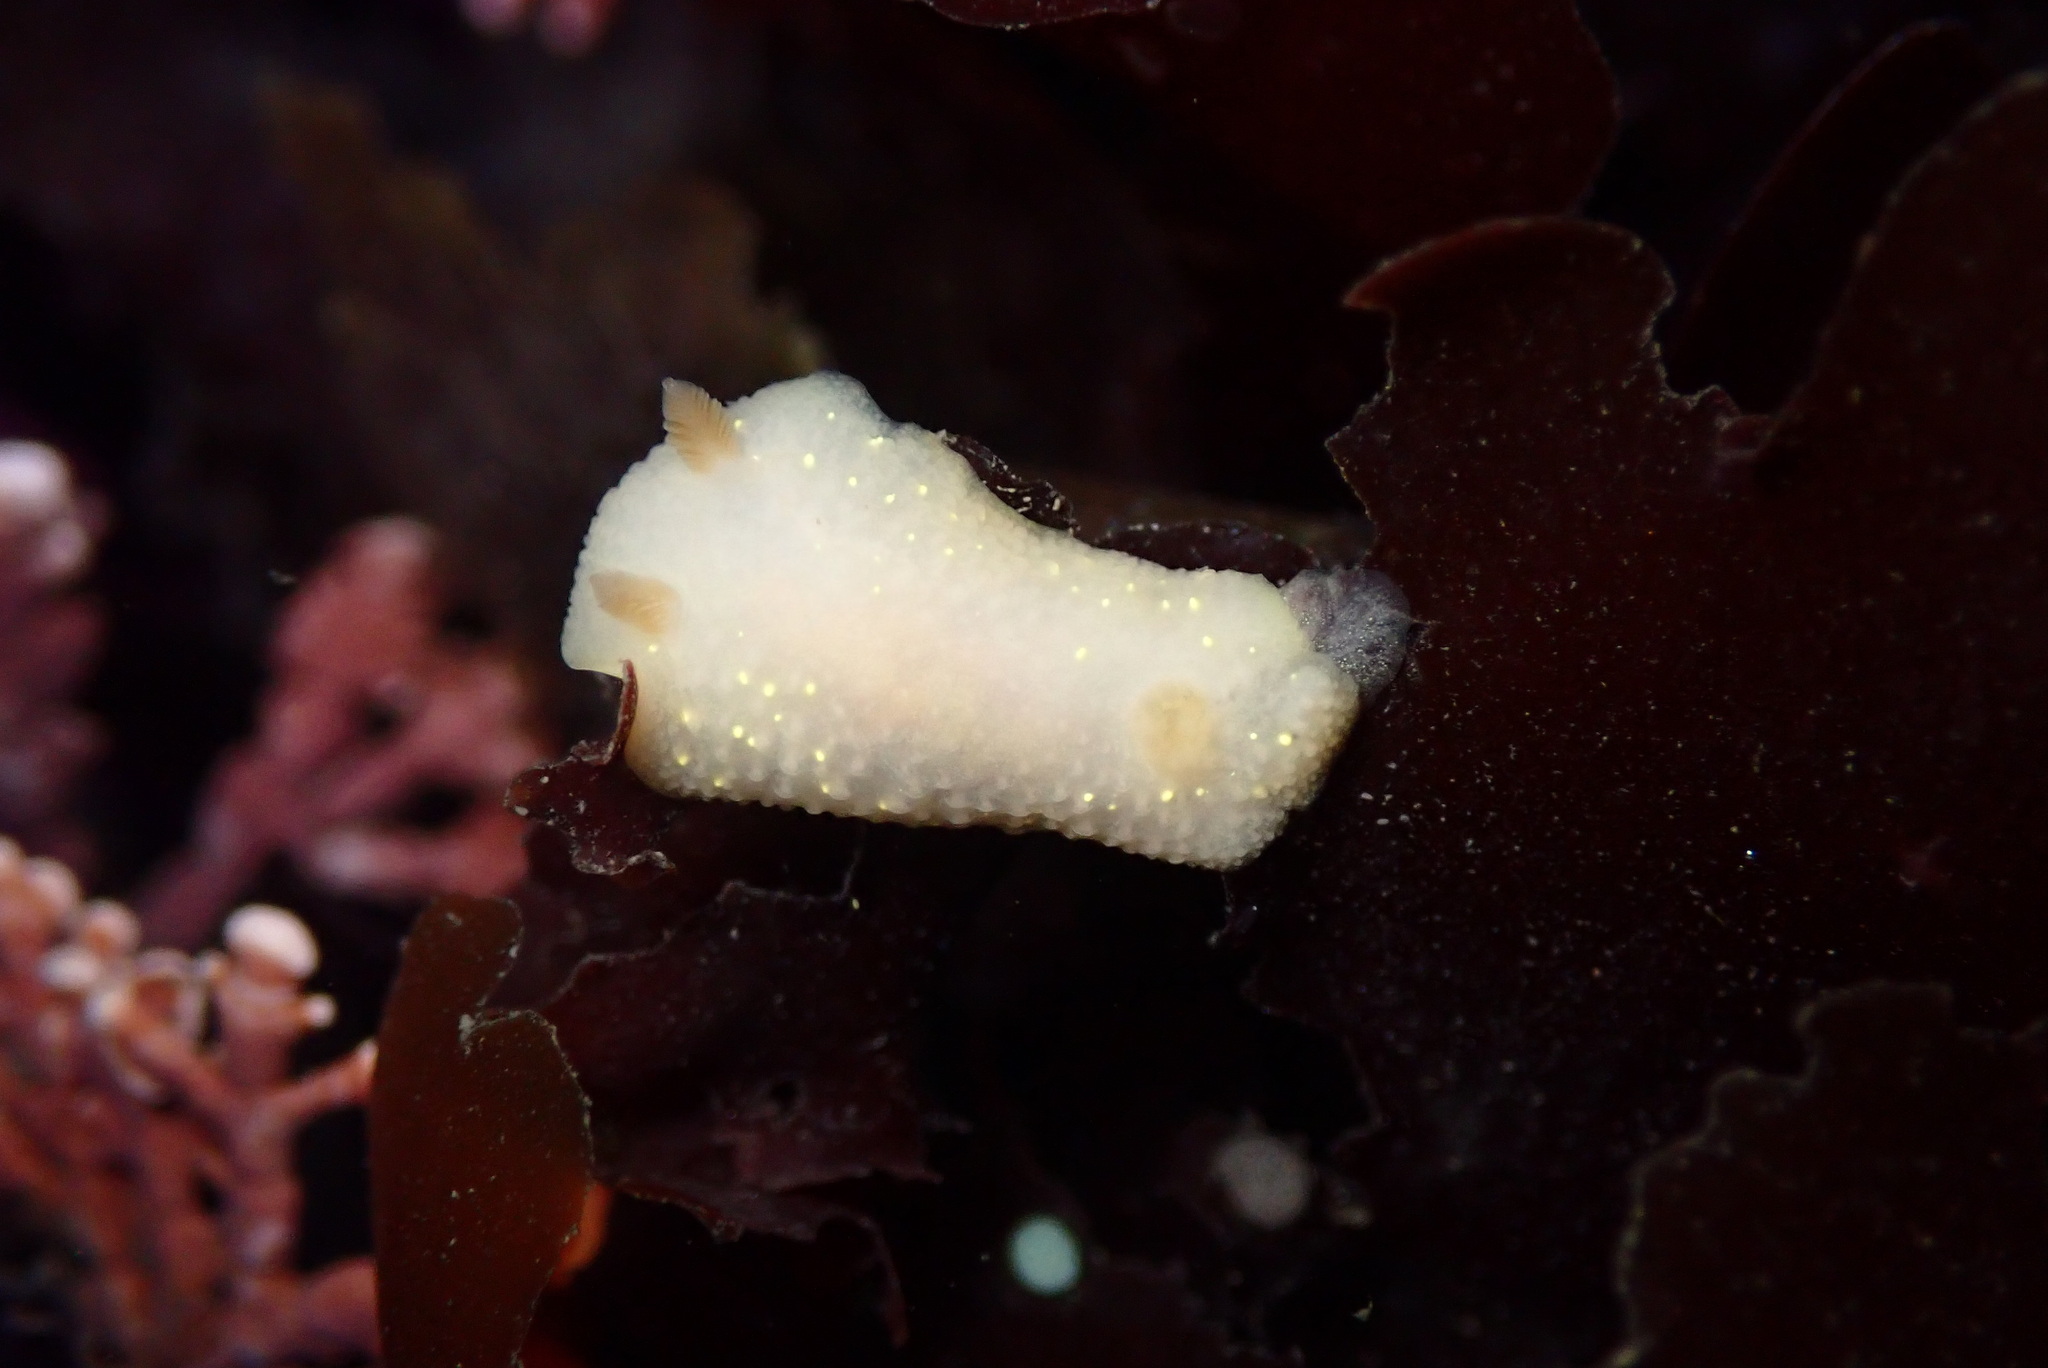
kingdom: Animalia
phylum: Mollusca
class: Gastropoda
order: Nudibranchia
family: Cadlinidae
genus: Cadlina
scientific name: Cadlina modesta
